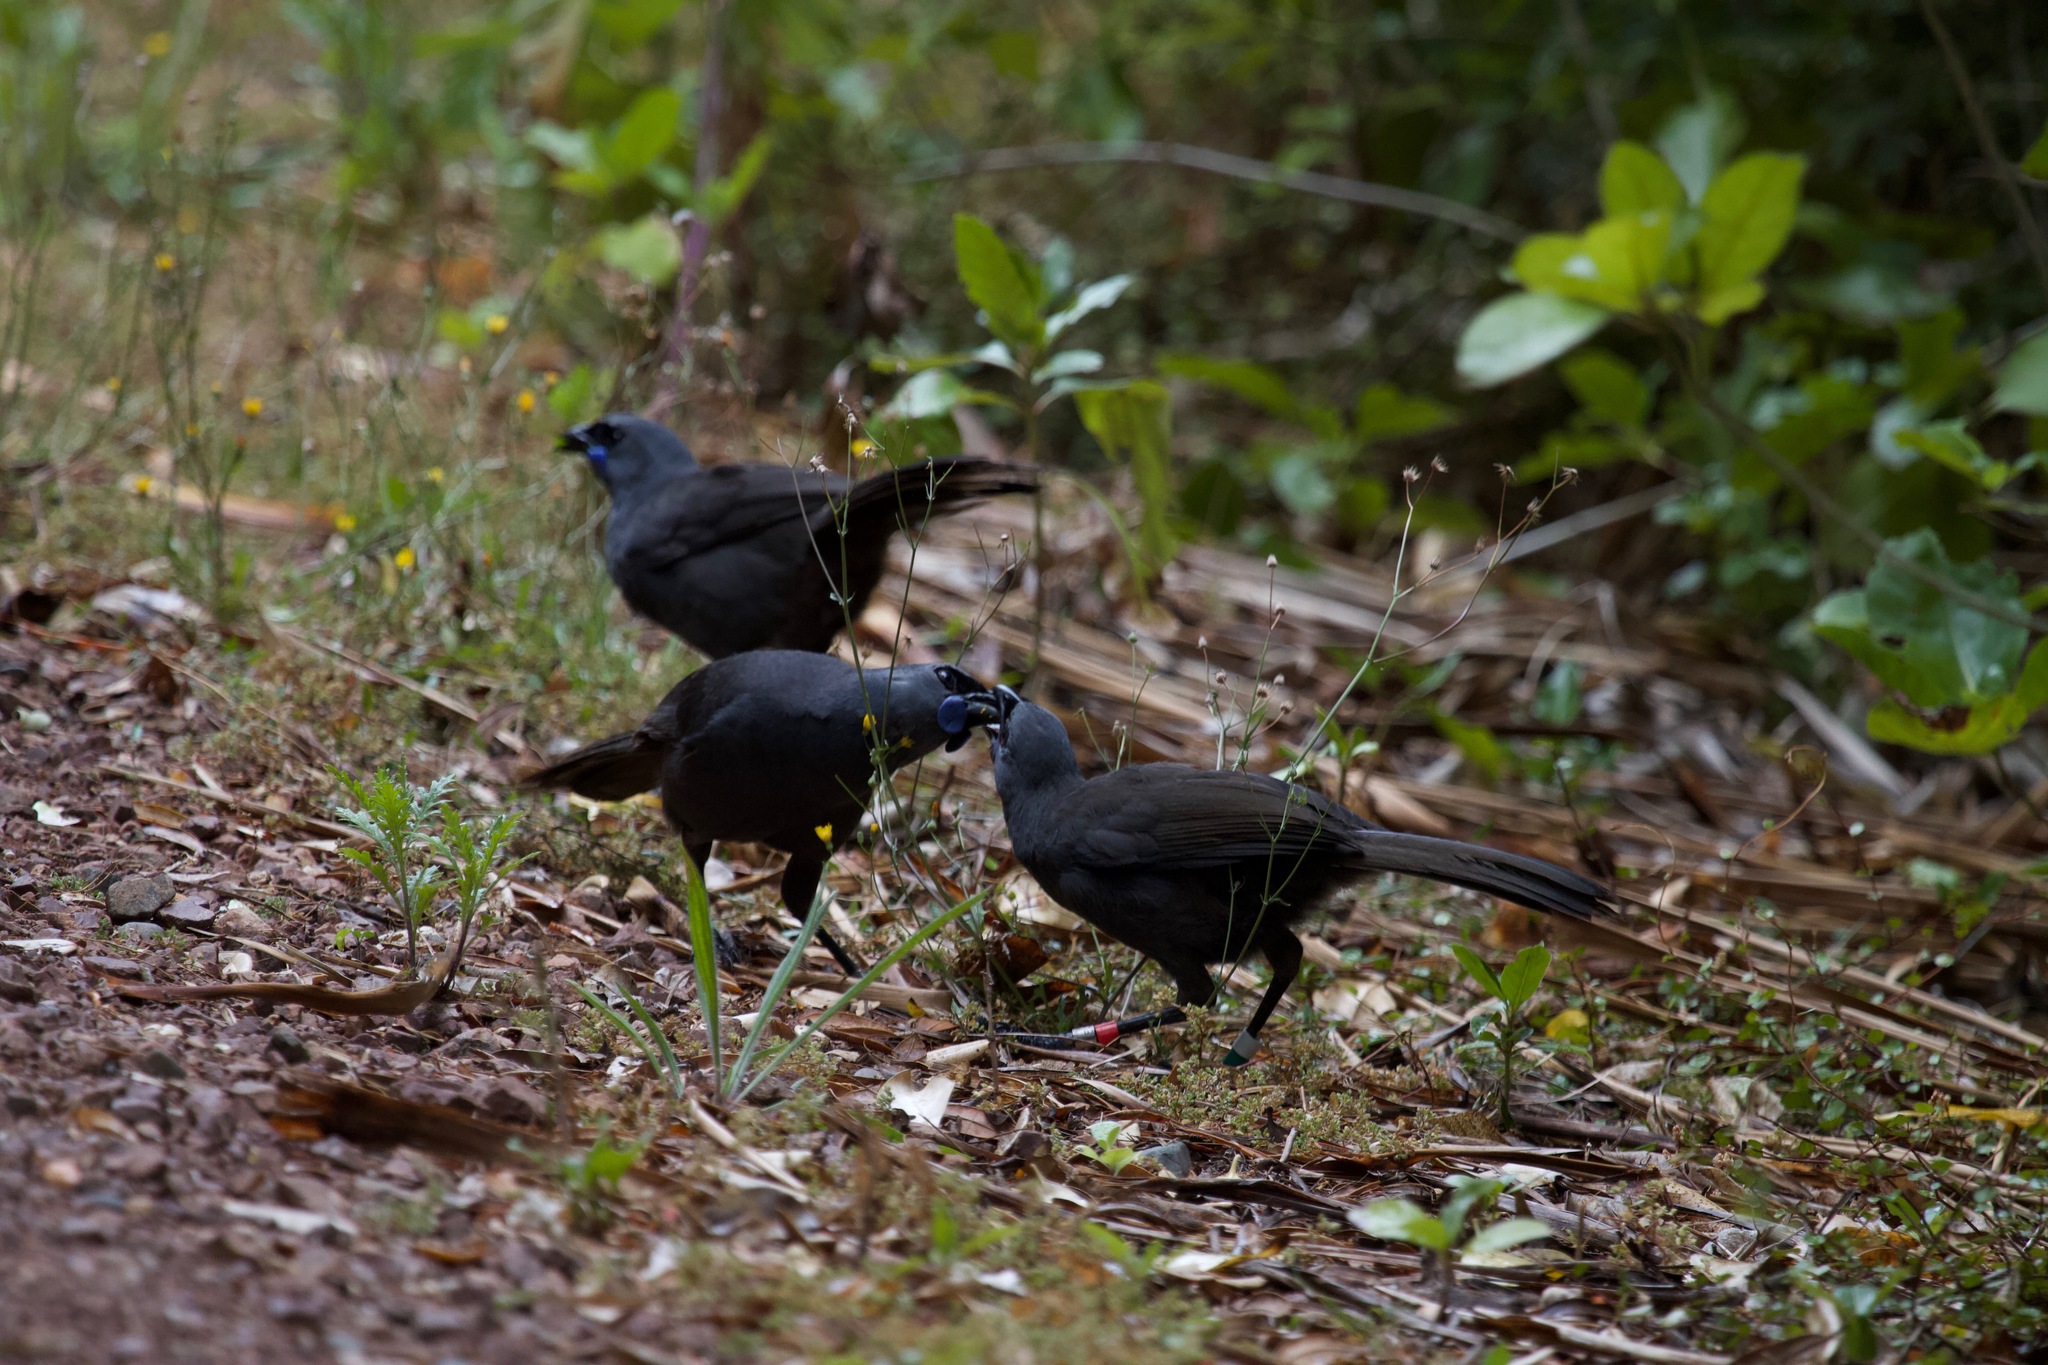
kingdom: Animalia
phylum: Chordata
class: Aves
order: Passeriformes
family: Callaeatidae
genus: Callaeas
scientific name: Callaeas cinereus
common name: South island kokako
